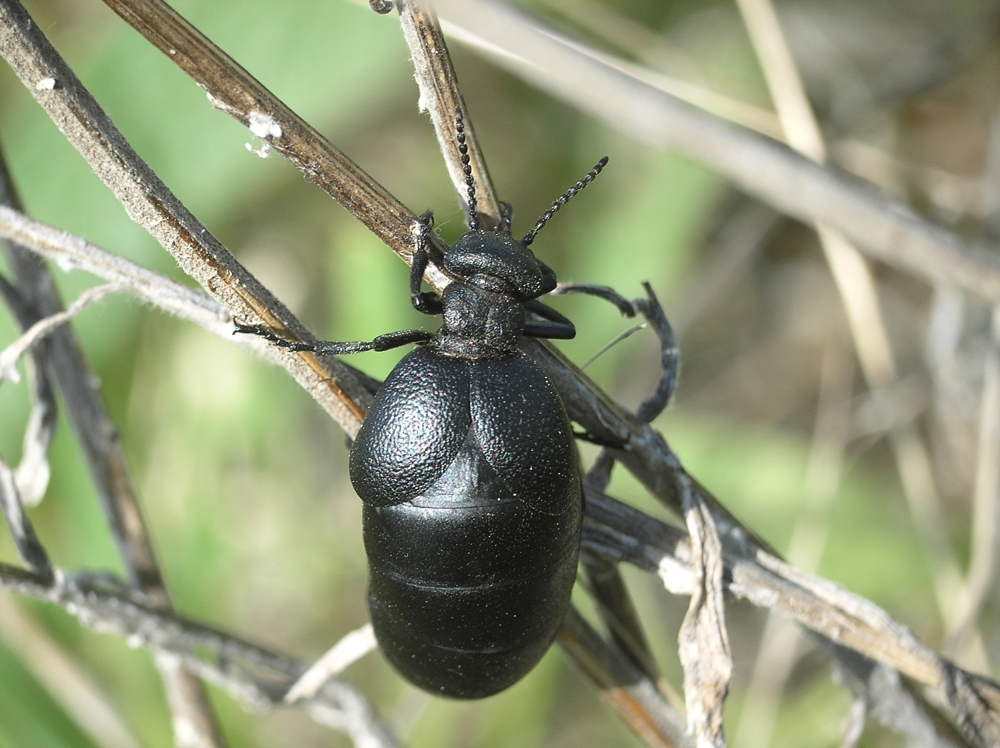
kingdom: Animalia
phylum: Arthropoda
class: Insecta
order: Coleoptera
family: Meloidae
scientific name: Meloidae
